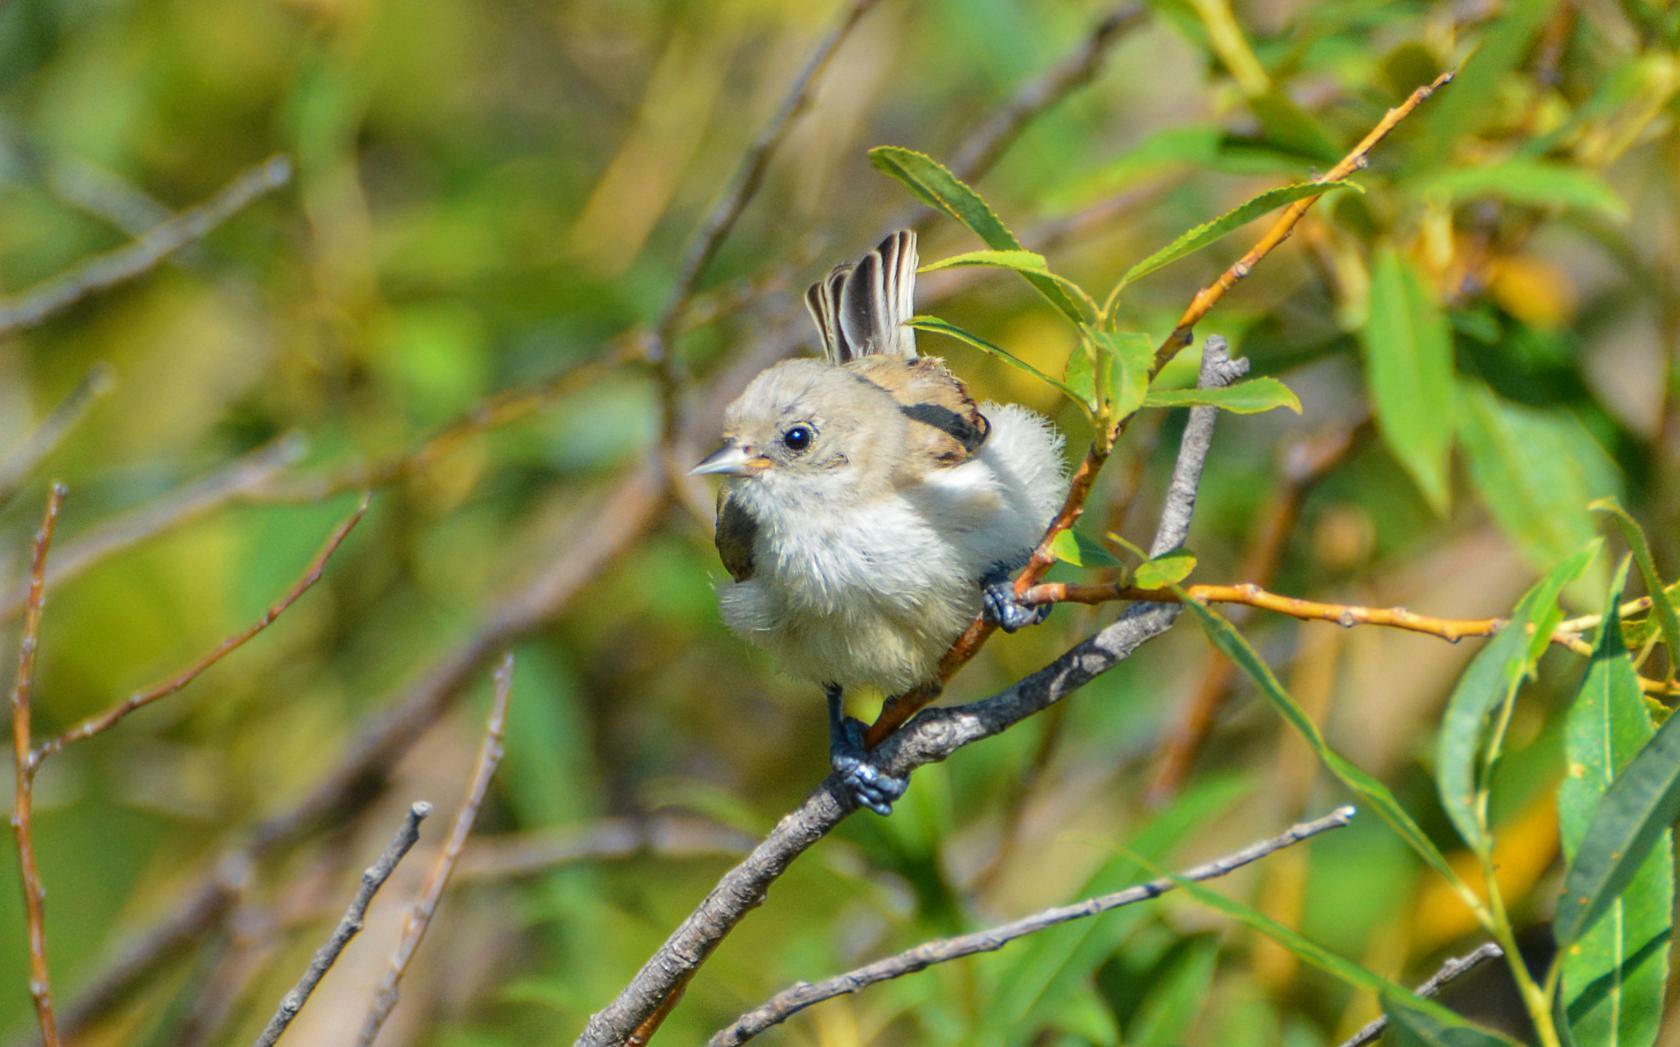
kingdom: Animalia
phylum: Chordata
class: Aves
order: Passeriformes
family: Remizidae
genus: Remiz
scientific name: Remiz pendulinus
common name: Eurasian penduline tit
